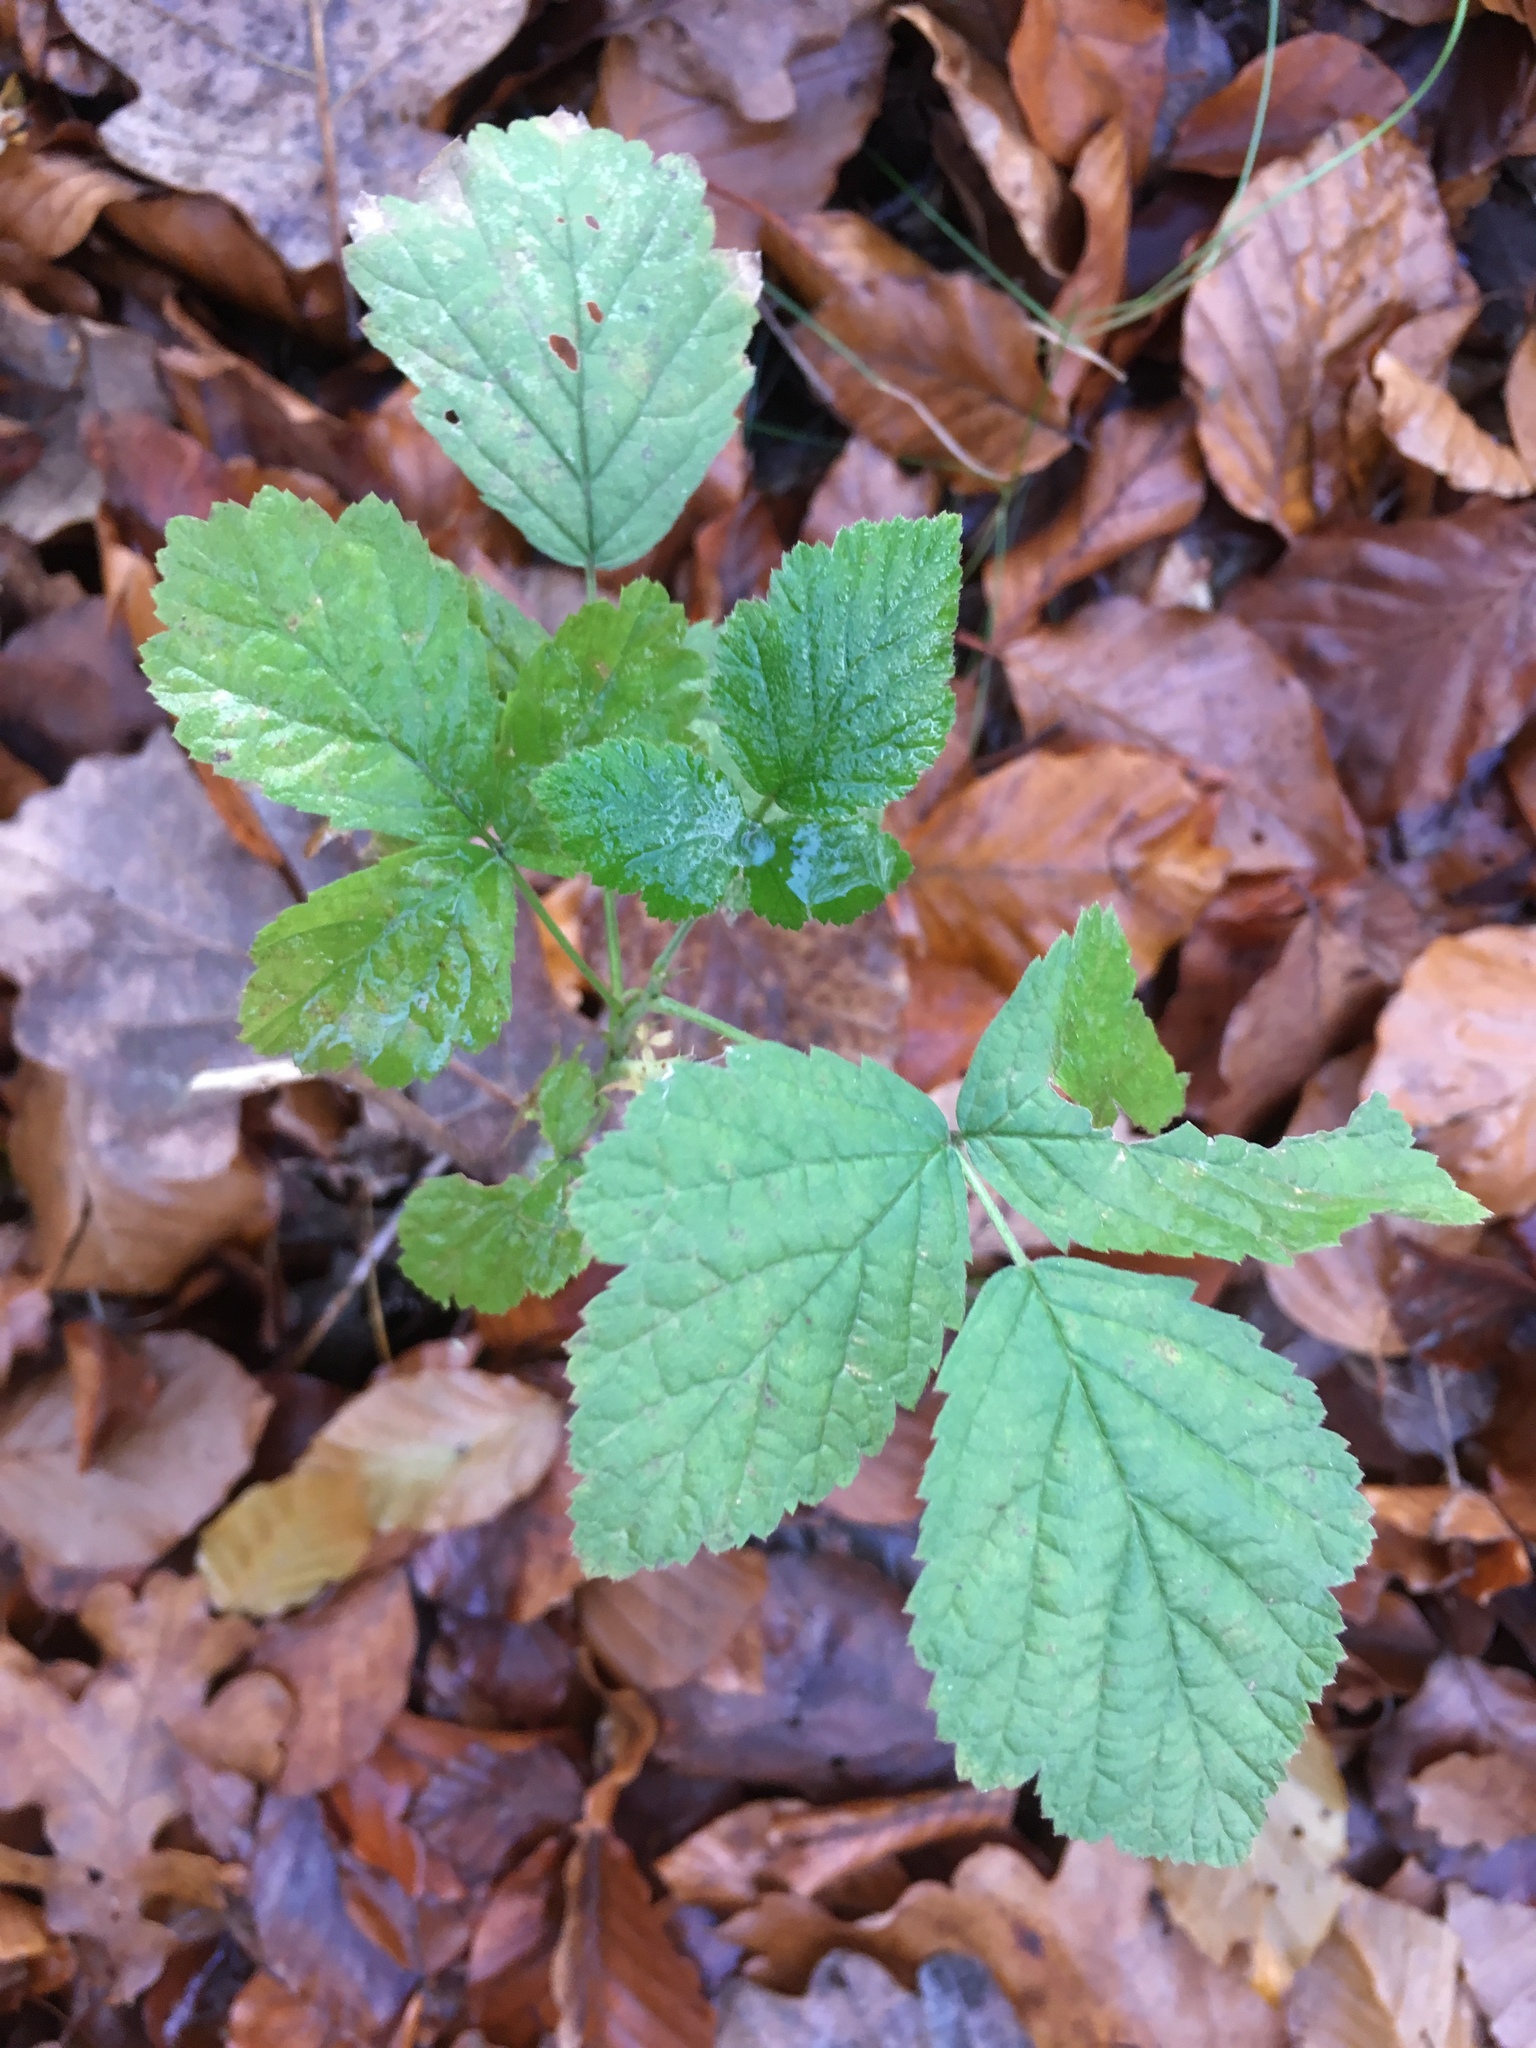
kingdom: Plantae
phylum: Tracheophyta
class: Magnoliopsida
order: Rosales
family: Rosaceae
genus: Rubus
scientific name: Rubus caesius
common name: Dewberry
